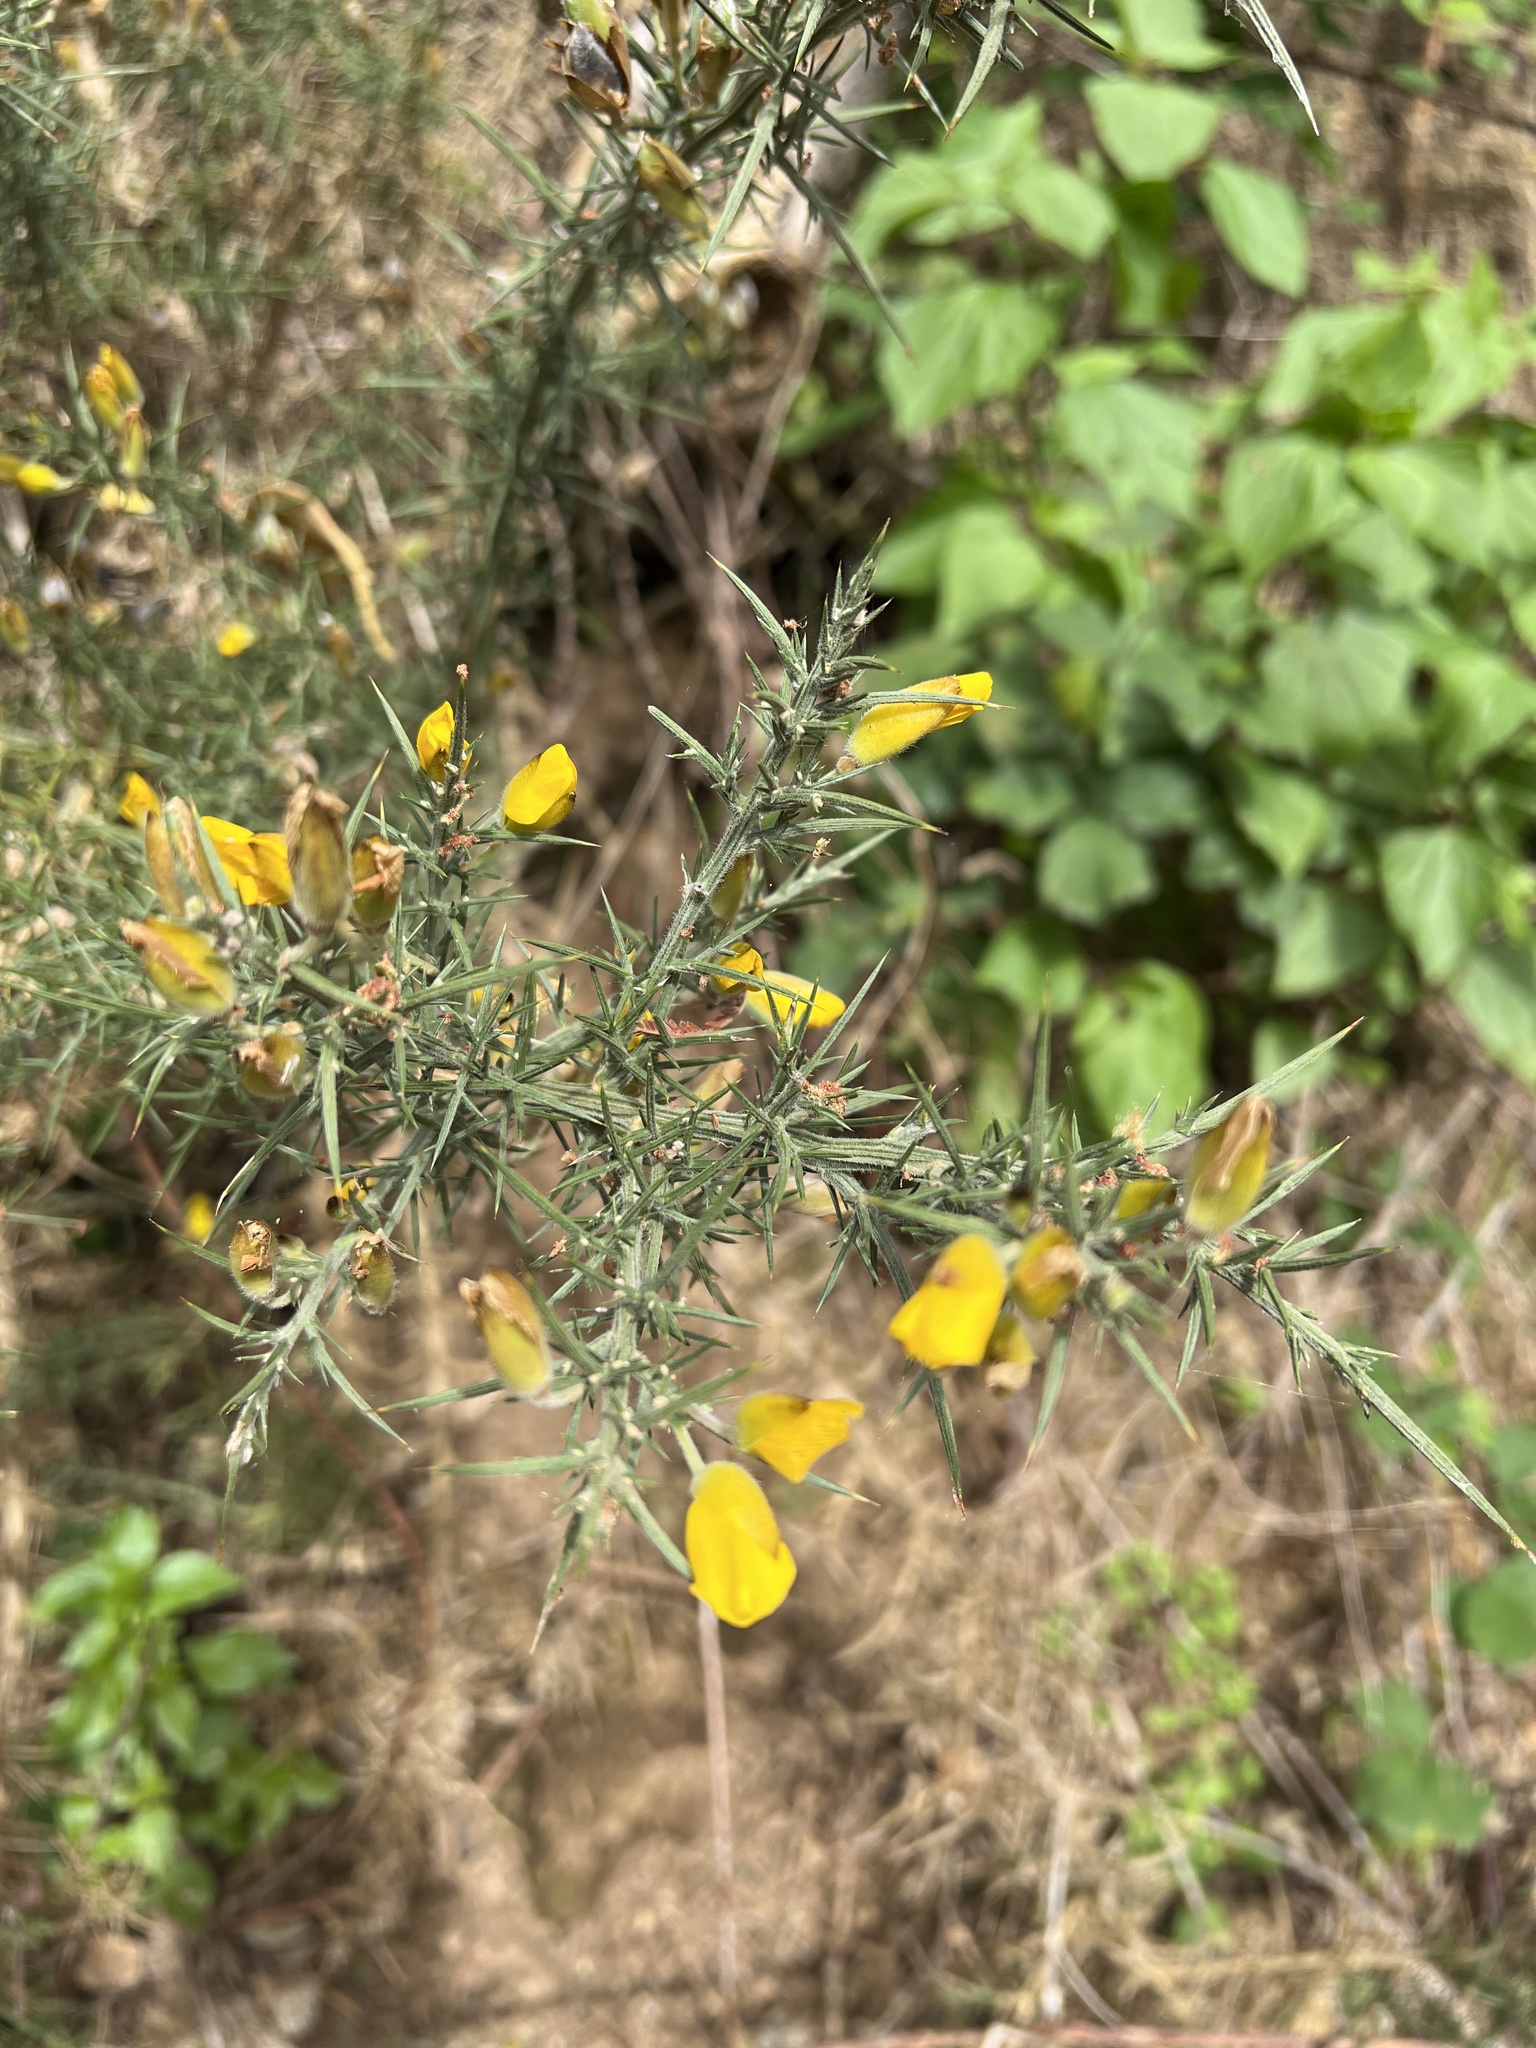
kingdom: Plantae
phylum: Tracheophyta
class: Magnoliopsida
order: Fabales
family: Fabaceae
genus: Ulex
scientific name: Ulex europaeus
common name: Common gorse
